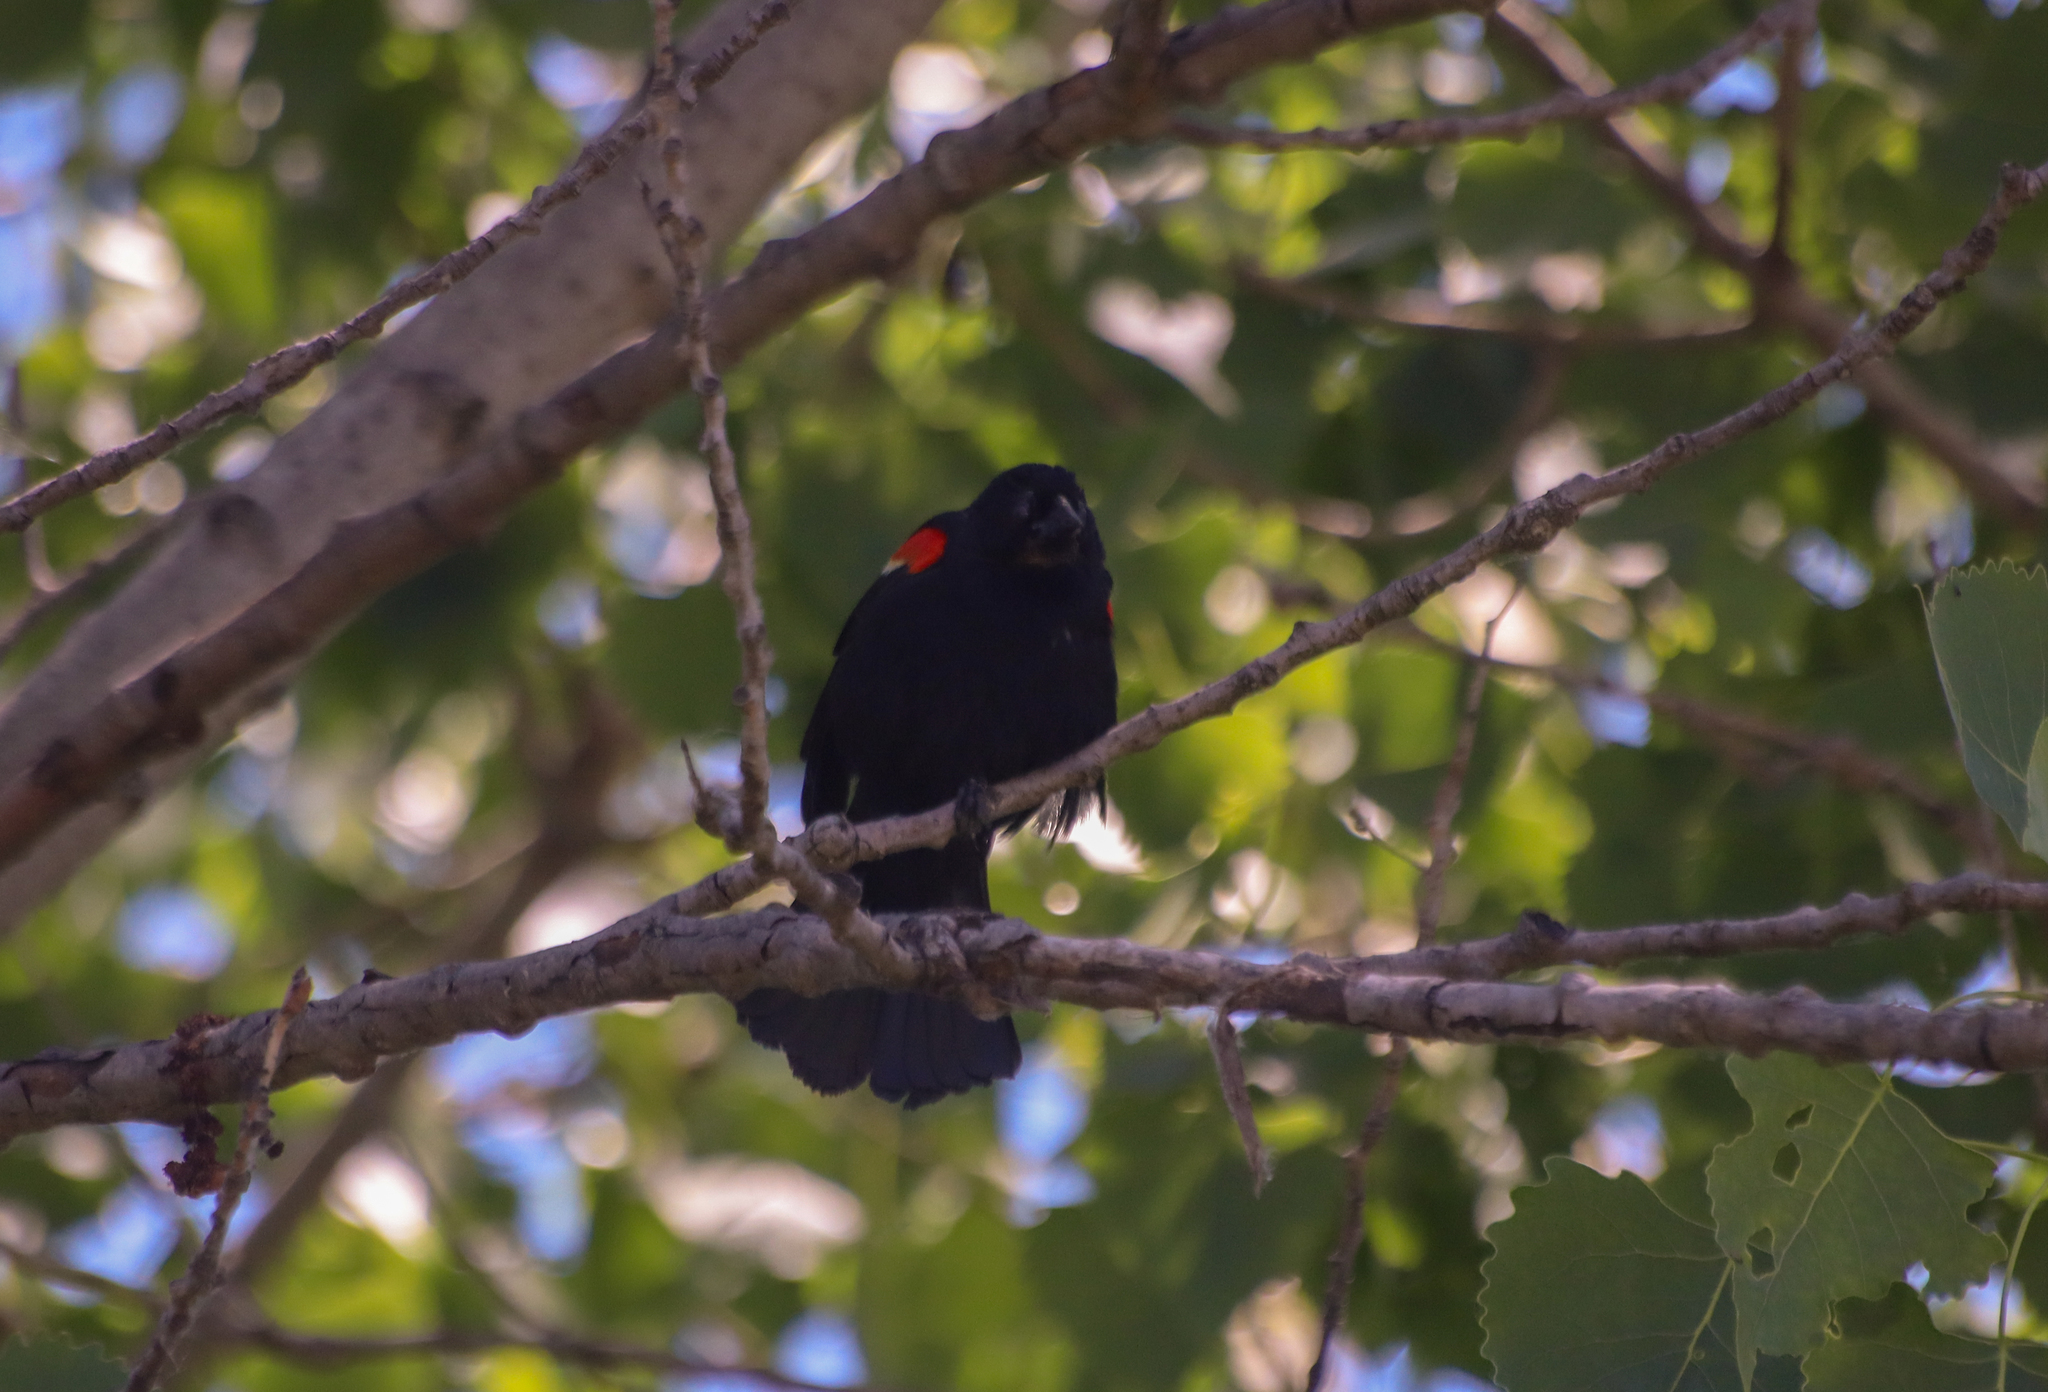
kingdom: Animalia
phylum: Chordata
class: Aves
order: Passeriformes
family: Icteridae
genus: Agelaius
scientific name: Agelaius phoeniceus
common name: Red-winged blackbird
